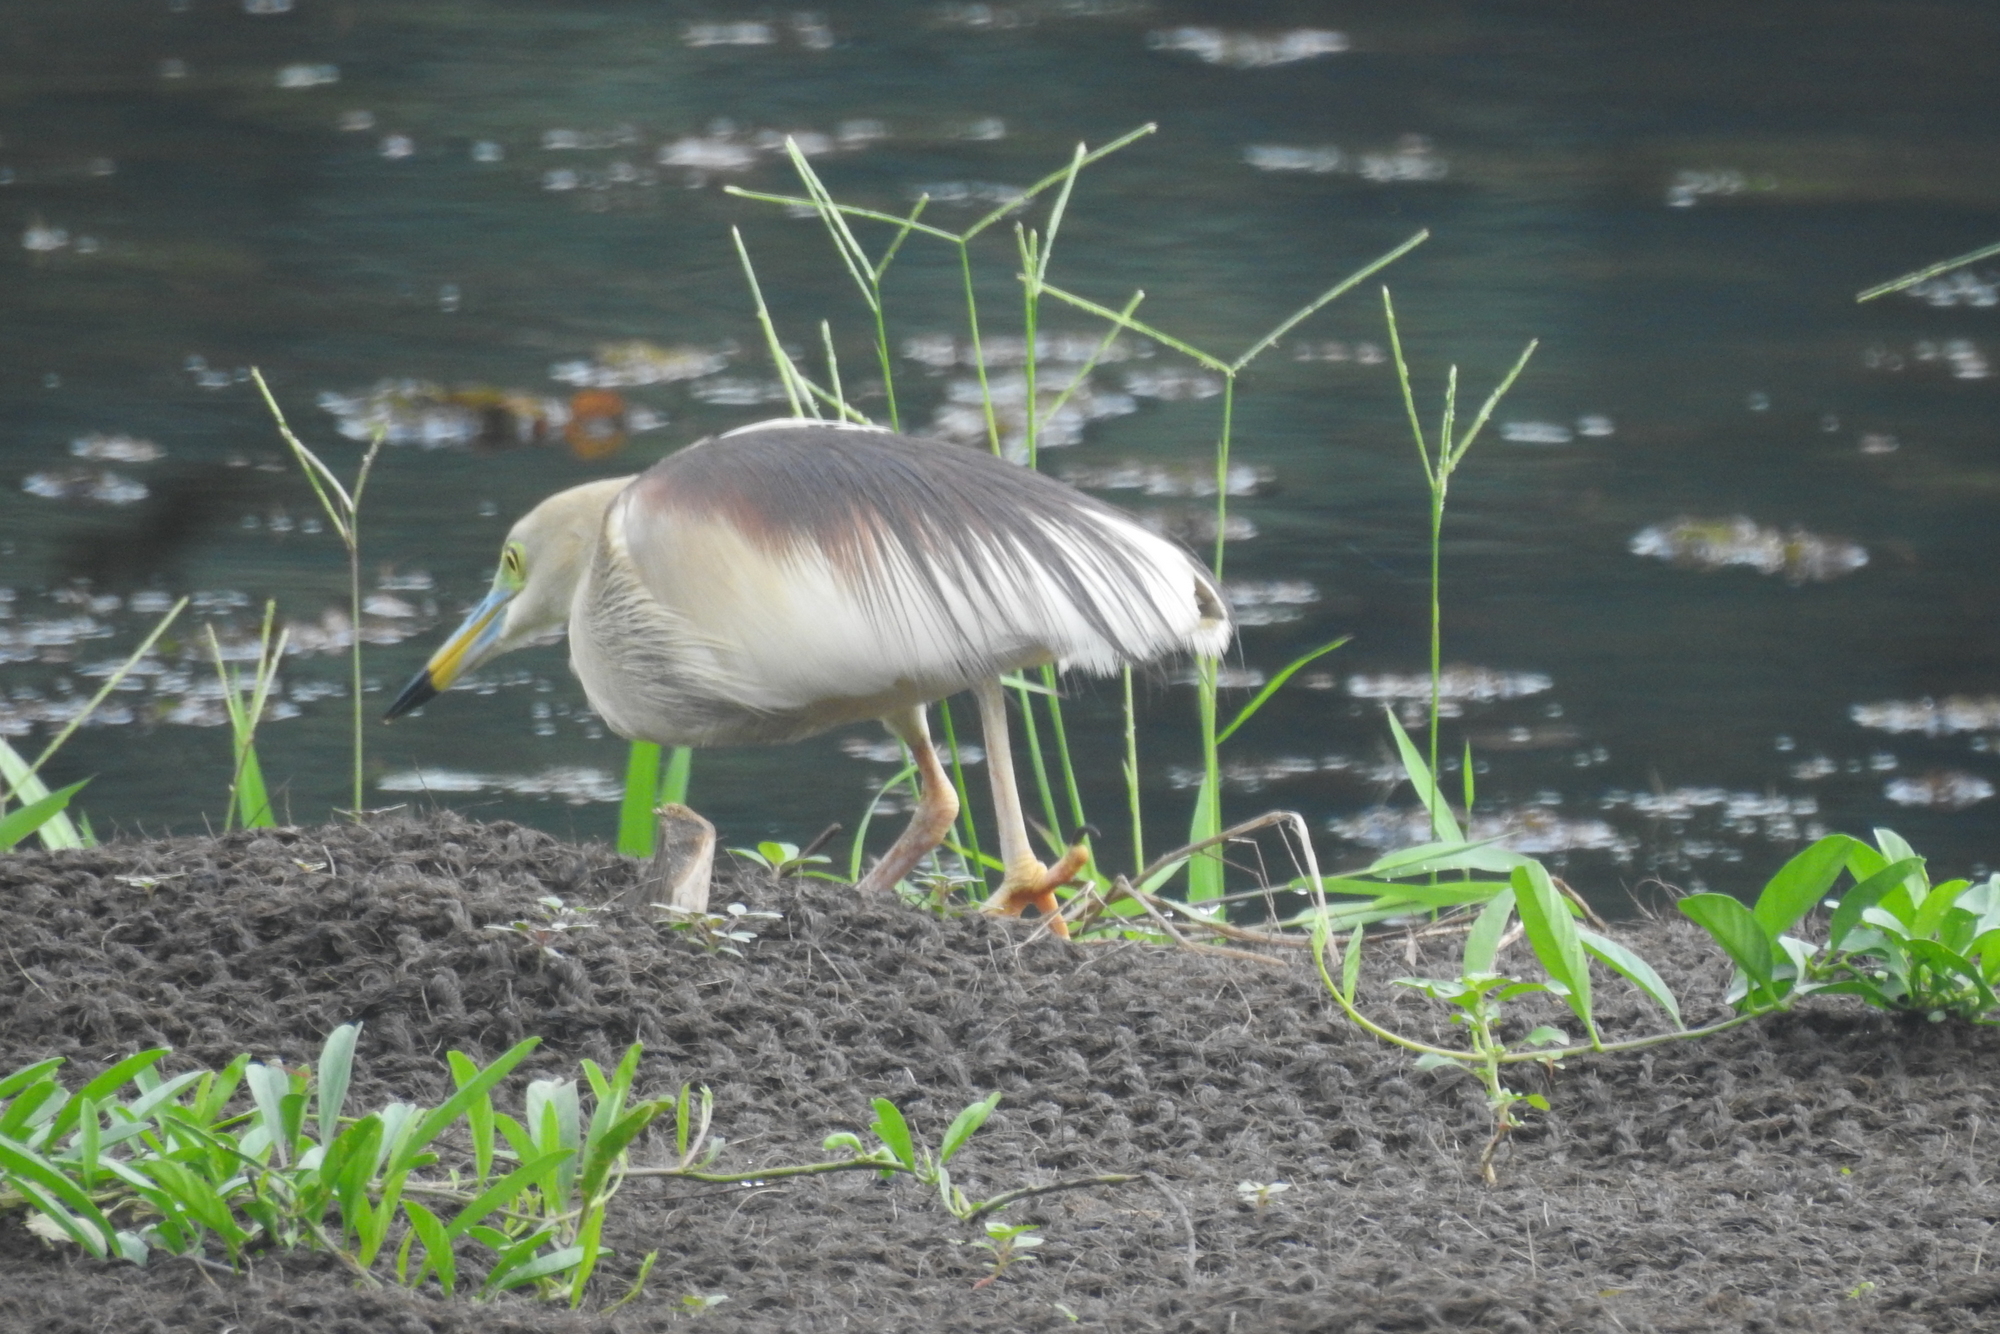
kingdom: Animalia
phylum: Chordata
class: Aves
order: Pelecaniformes
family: Ardeidae
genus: Ardeola
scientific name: Ardeola grayii
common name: Indian pond heron
